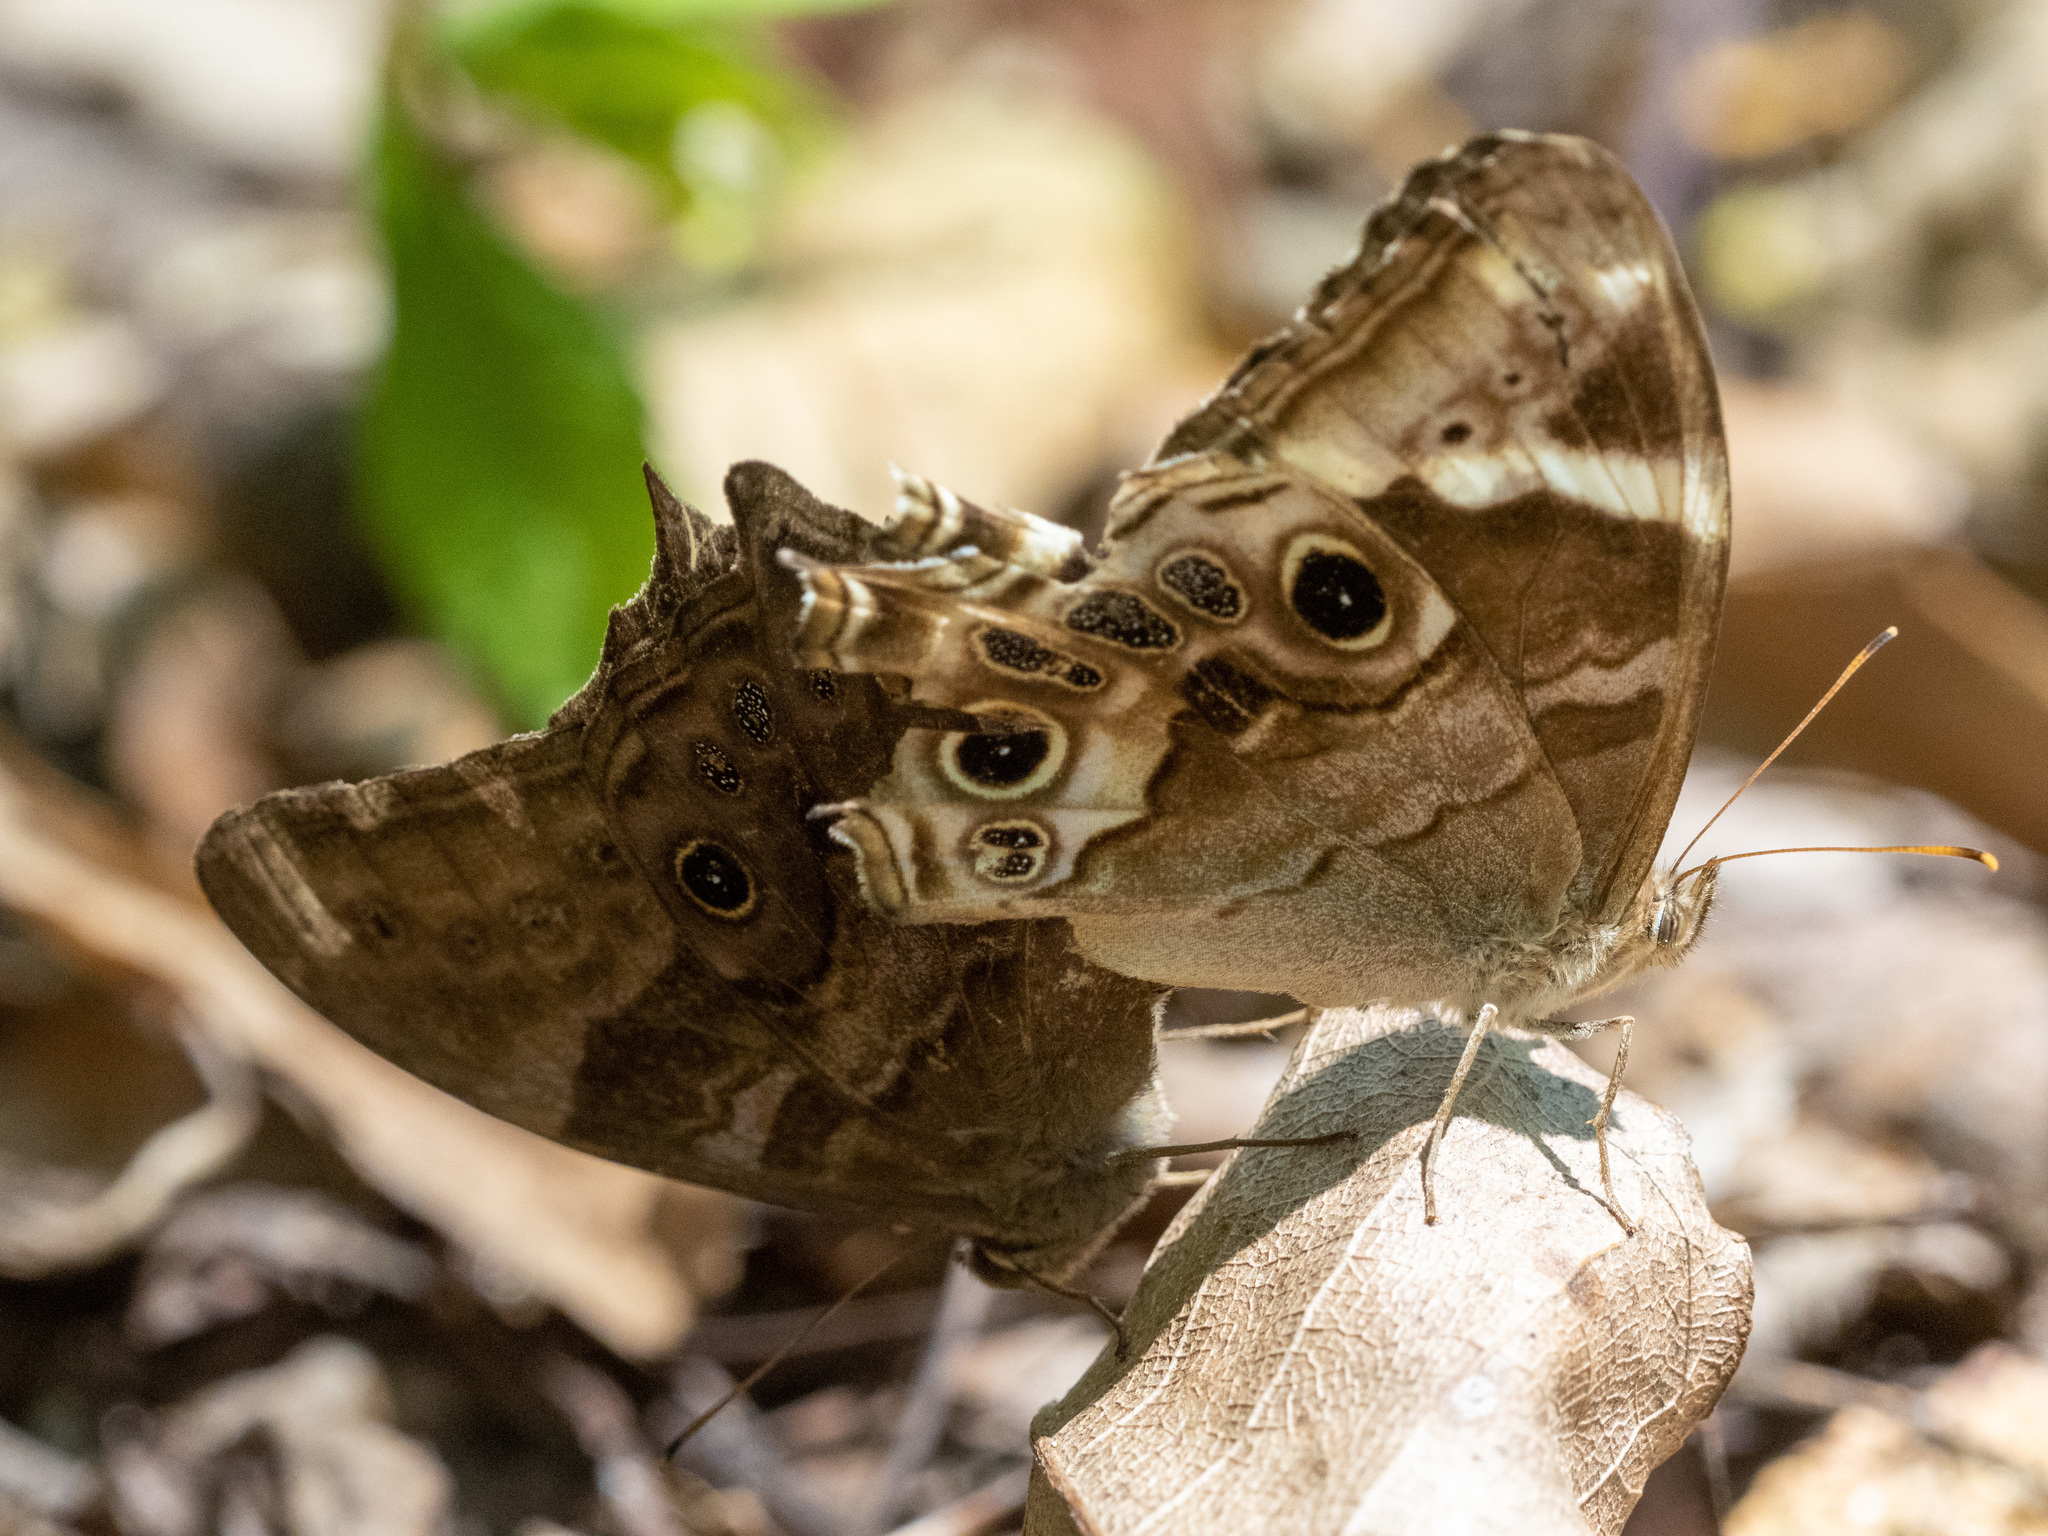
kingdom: Animalia
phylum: Arthropoda
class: Insecta
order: Lepidoptera
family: Nymphalidae
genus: Lethe
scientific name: Lethe drypetis
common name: Tamil treebrown
